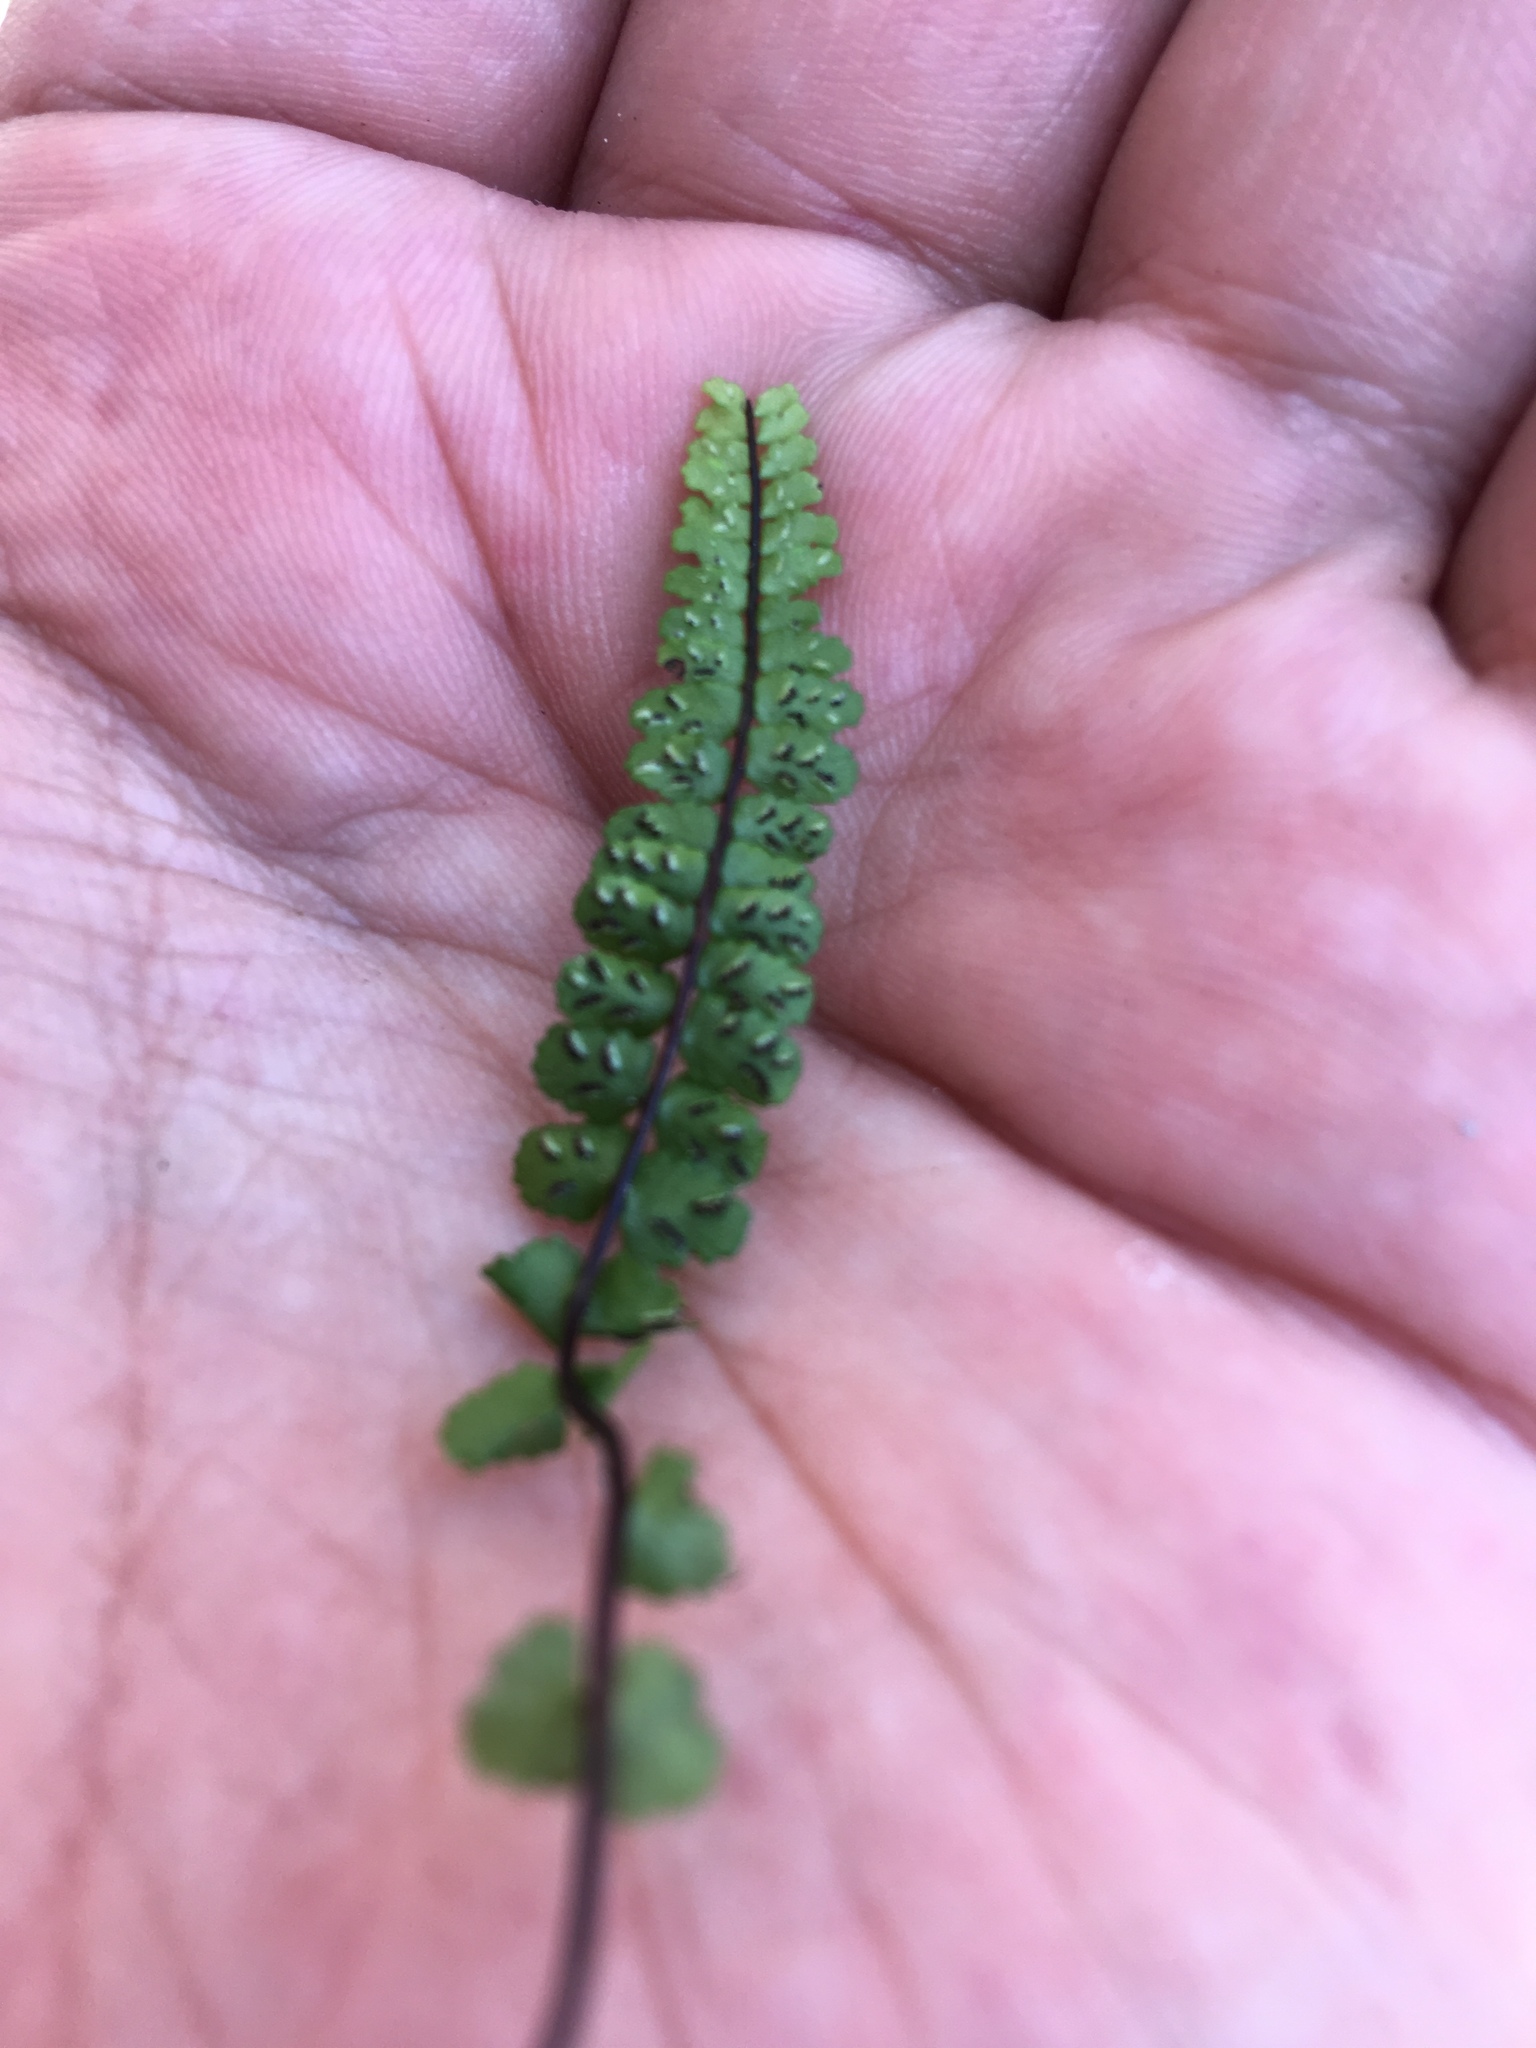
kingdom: Plantae
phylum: Tracheophyta
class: Polypodiopsida
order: Polypodiales
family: Aspleniaceae
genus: Asplenium
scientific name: Asplenium trichomanes
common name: Maidenhair spleenwort
